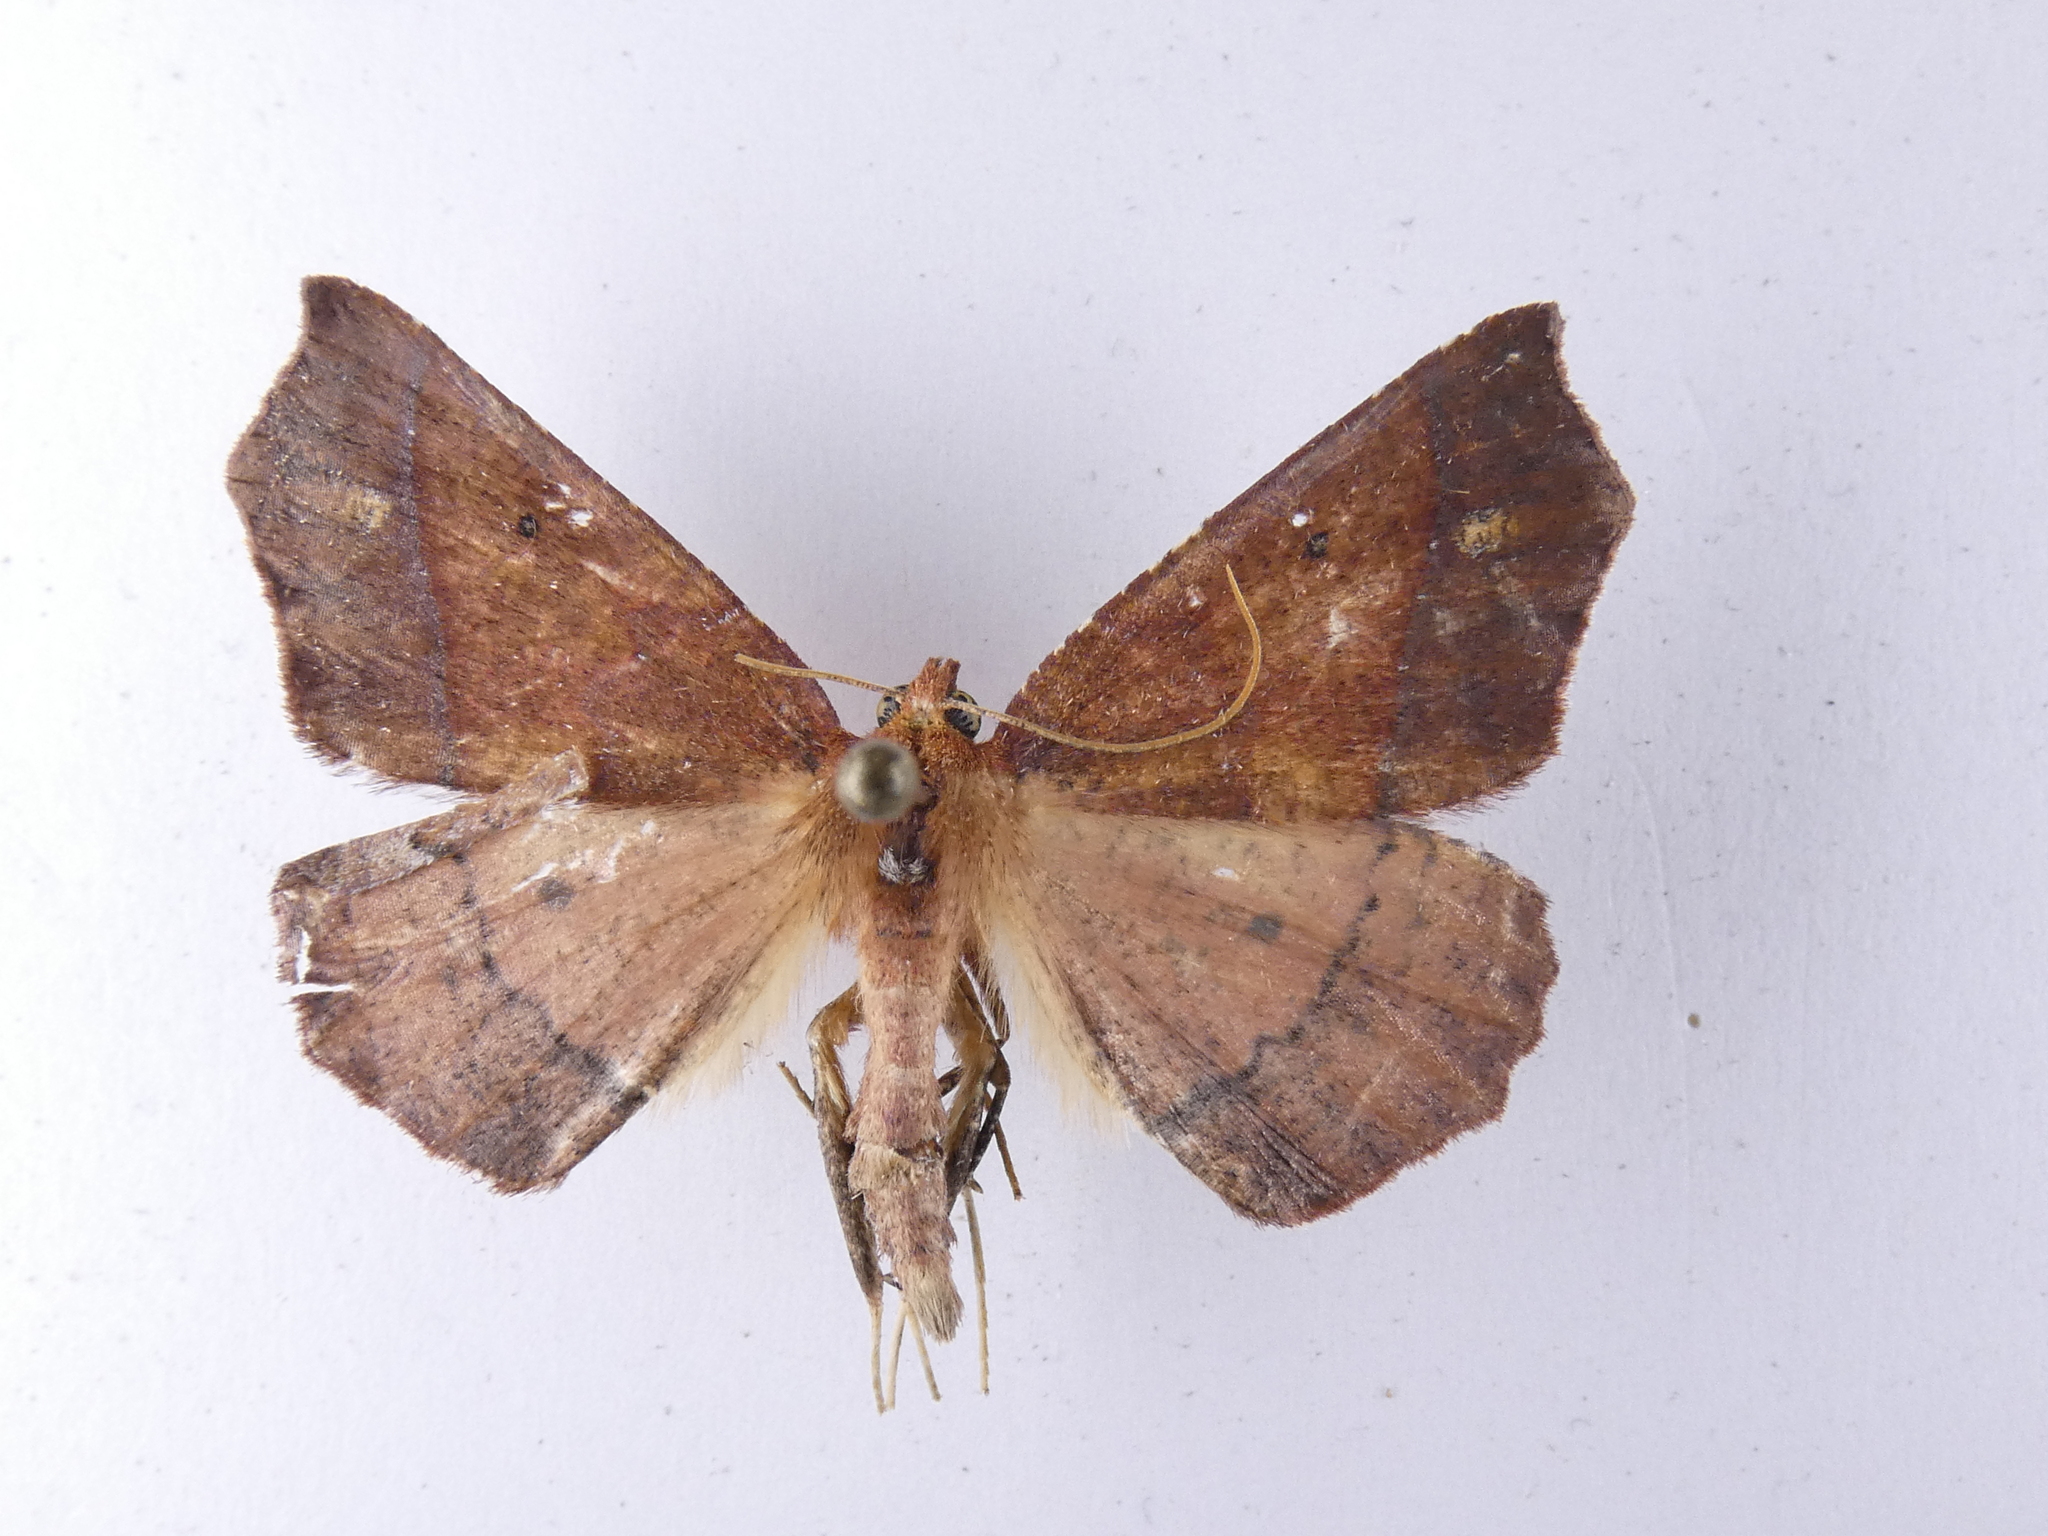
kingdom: Animalia
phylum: Arthropoda
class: Insecta
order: Lepidoptera
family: Geometridae
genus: Ischalis
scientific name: Ischalis nelsonaria
